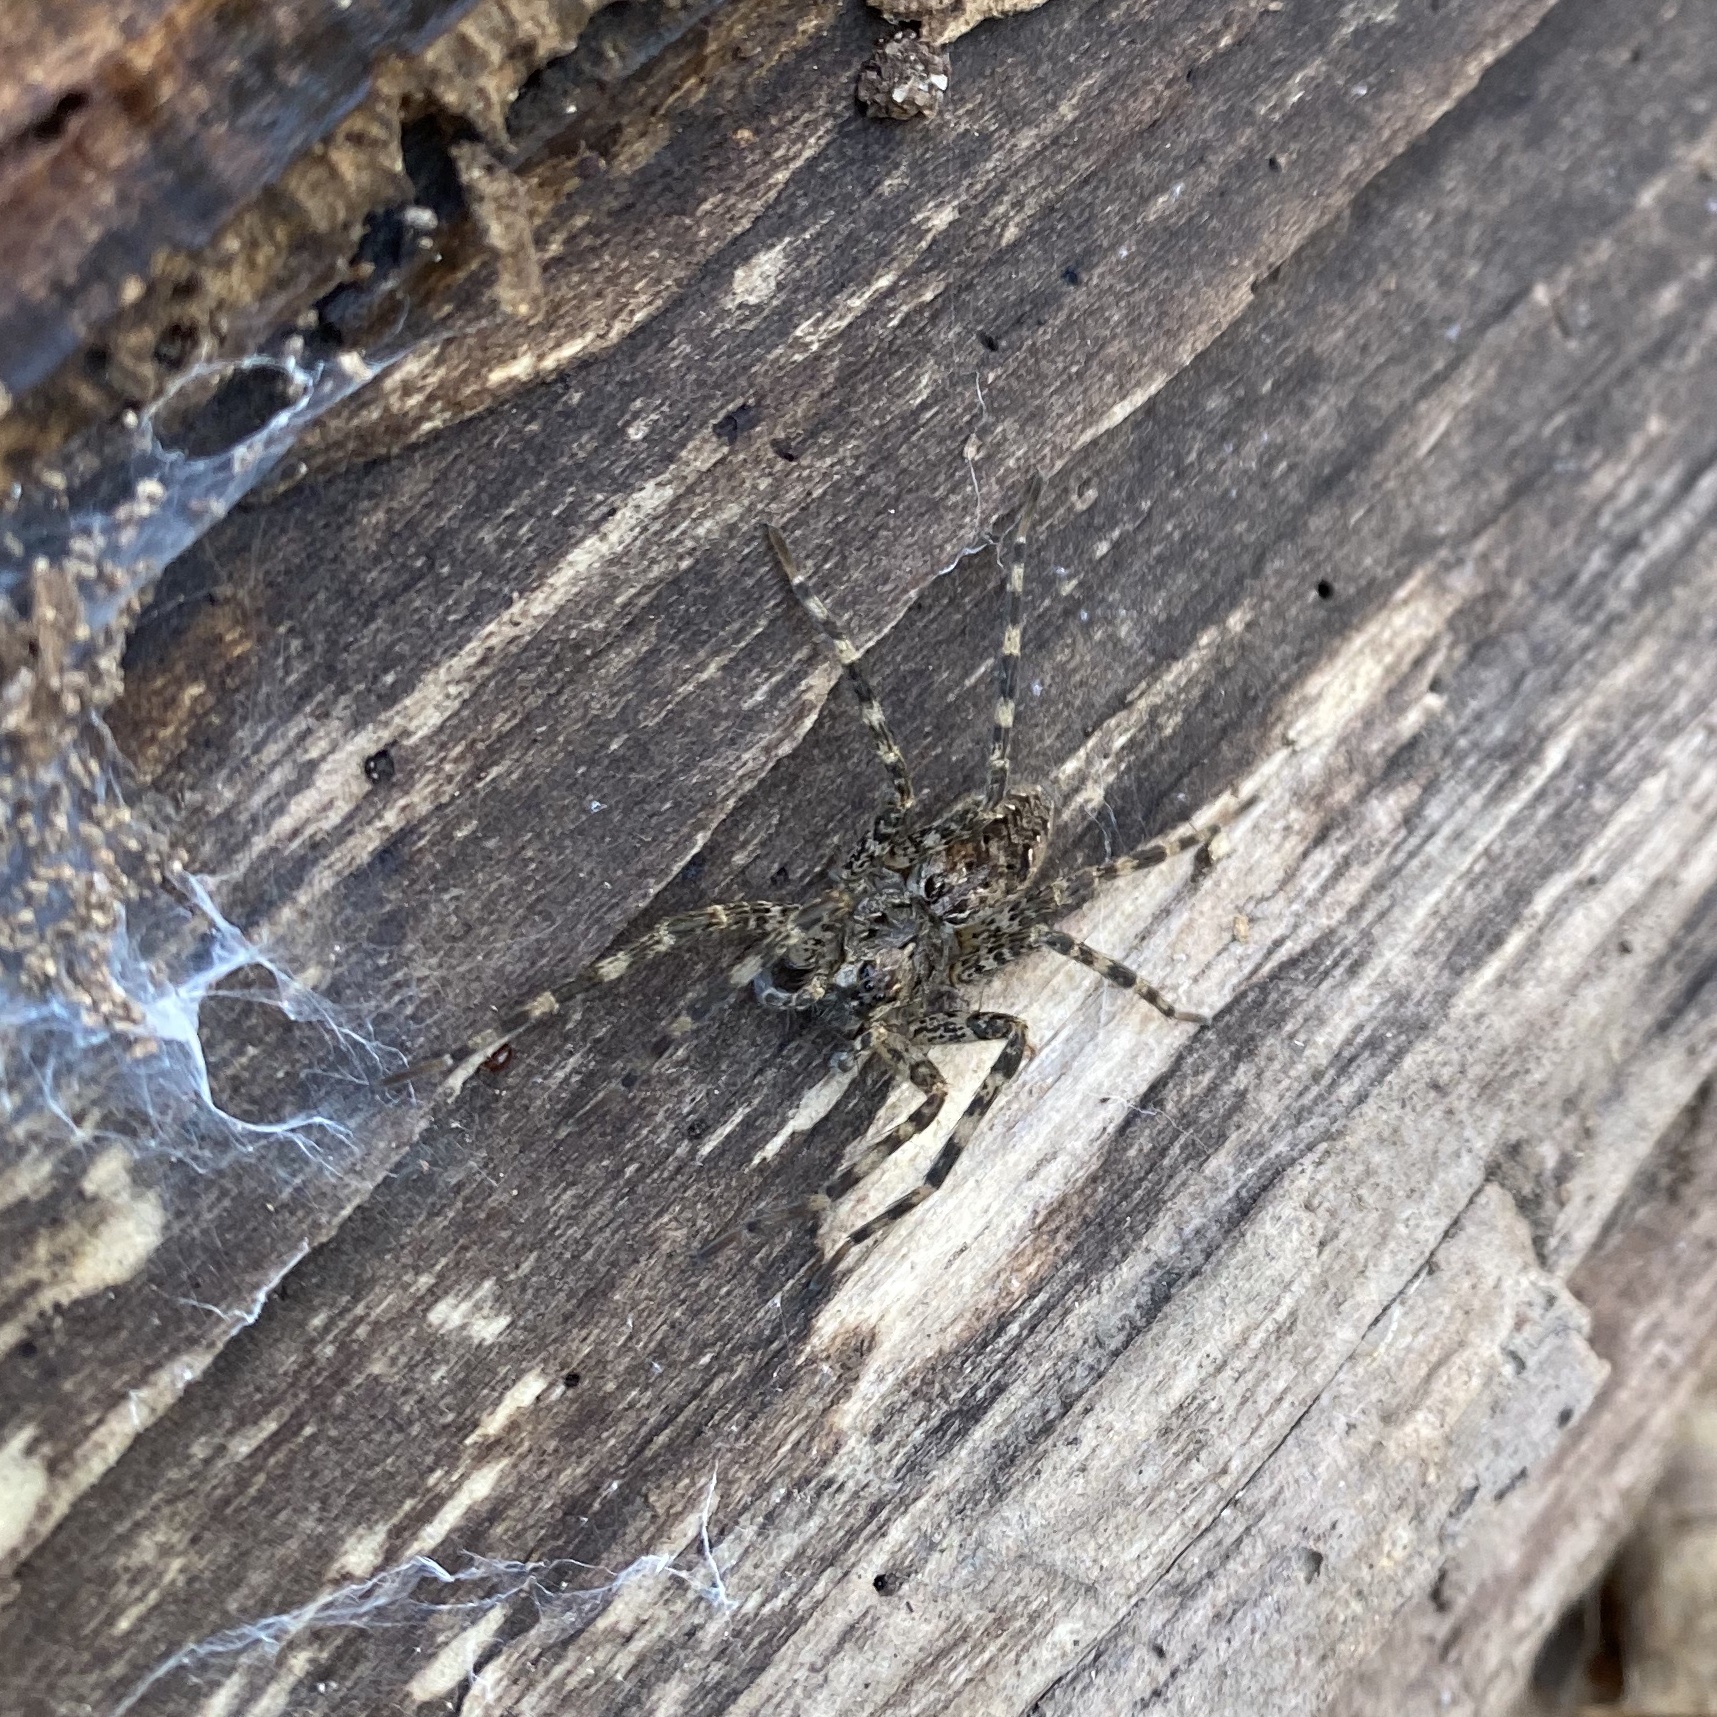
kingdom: Animalia
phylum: Arthropoda
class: Arachnida
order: Araneae
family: Pisauridae
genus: Dolomedes
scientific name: Dolomedes tenebrosus
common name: Dark fishing spider
